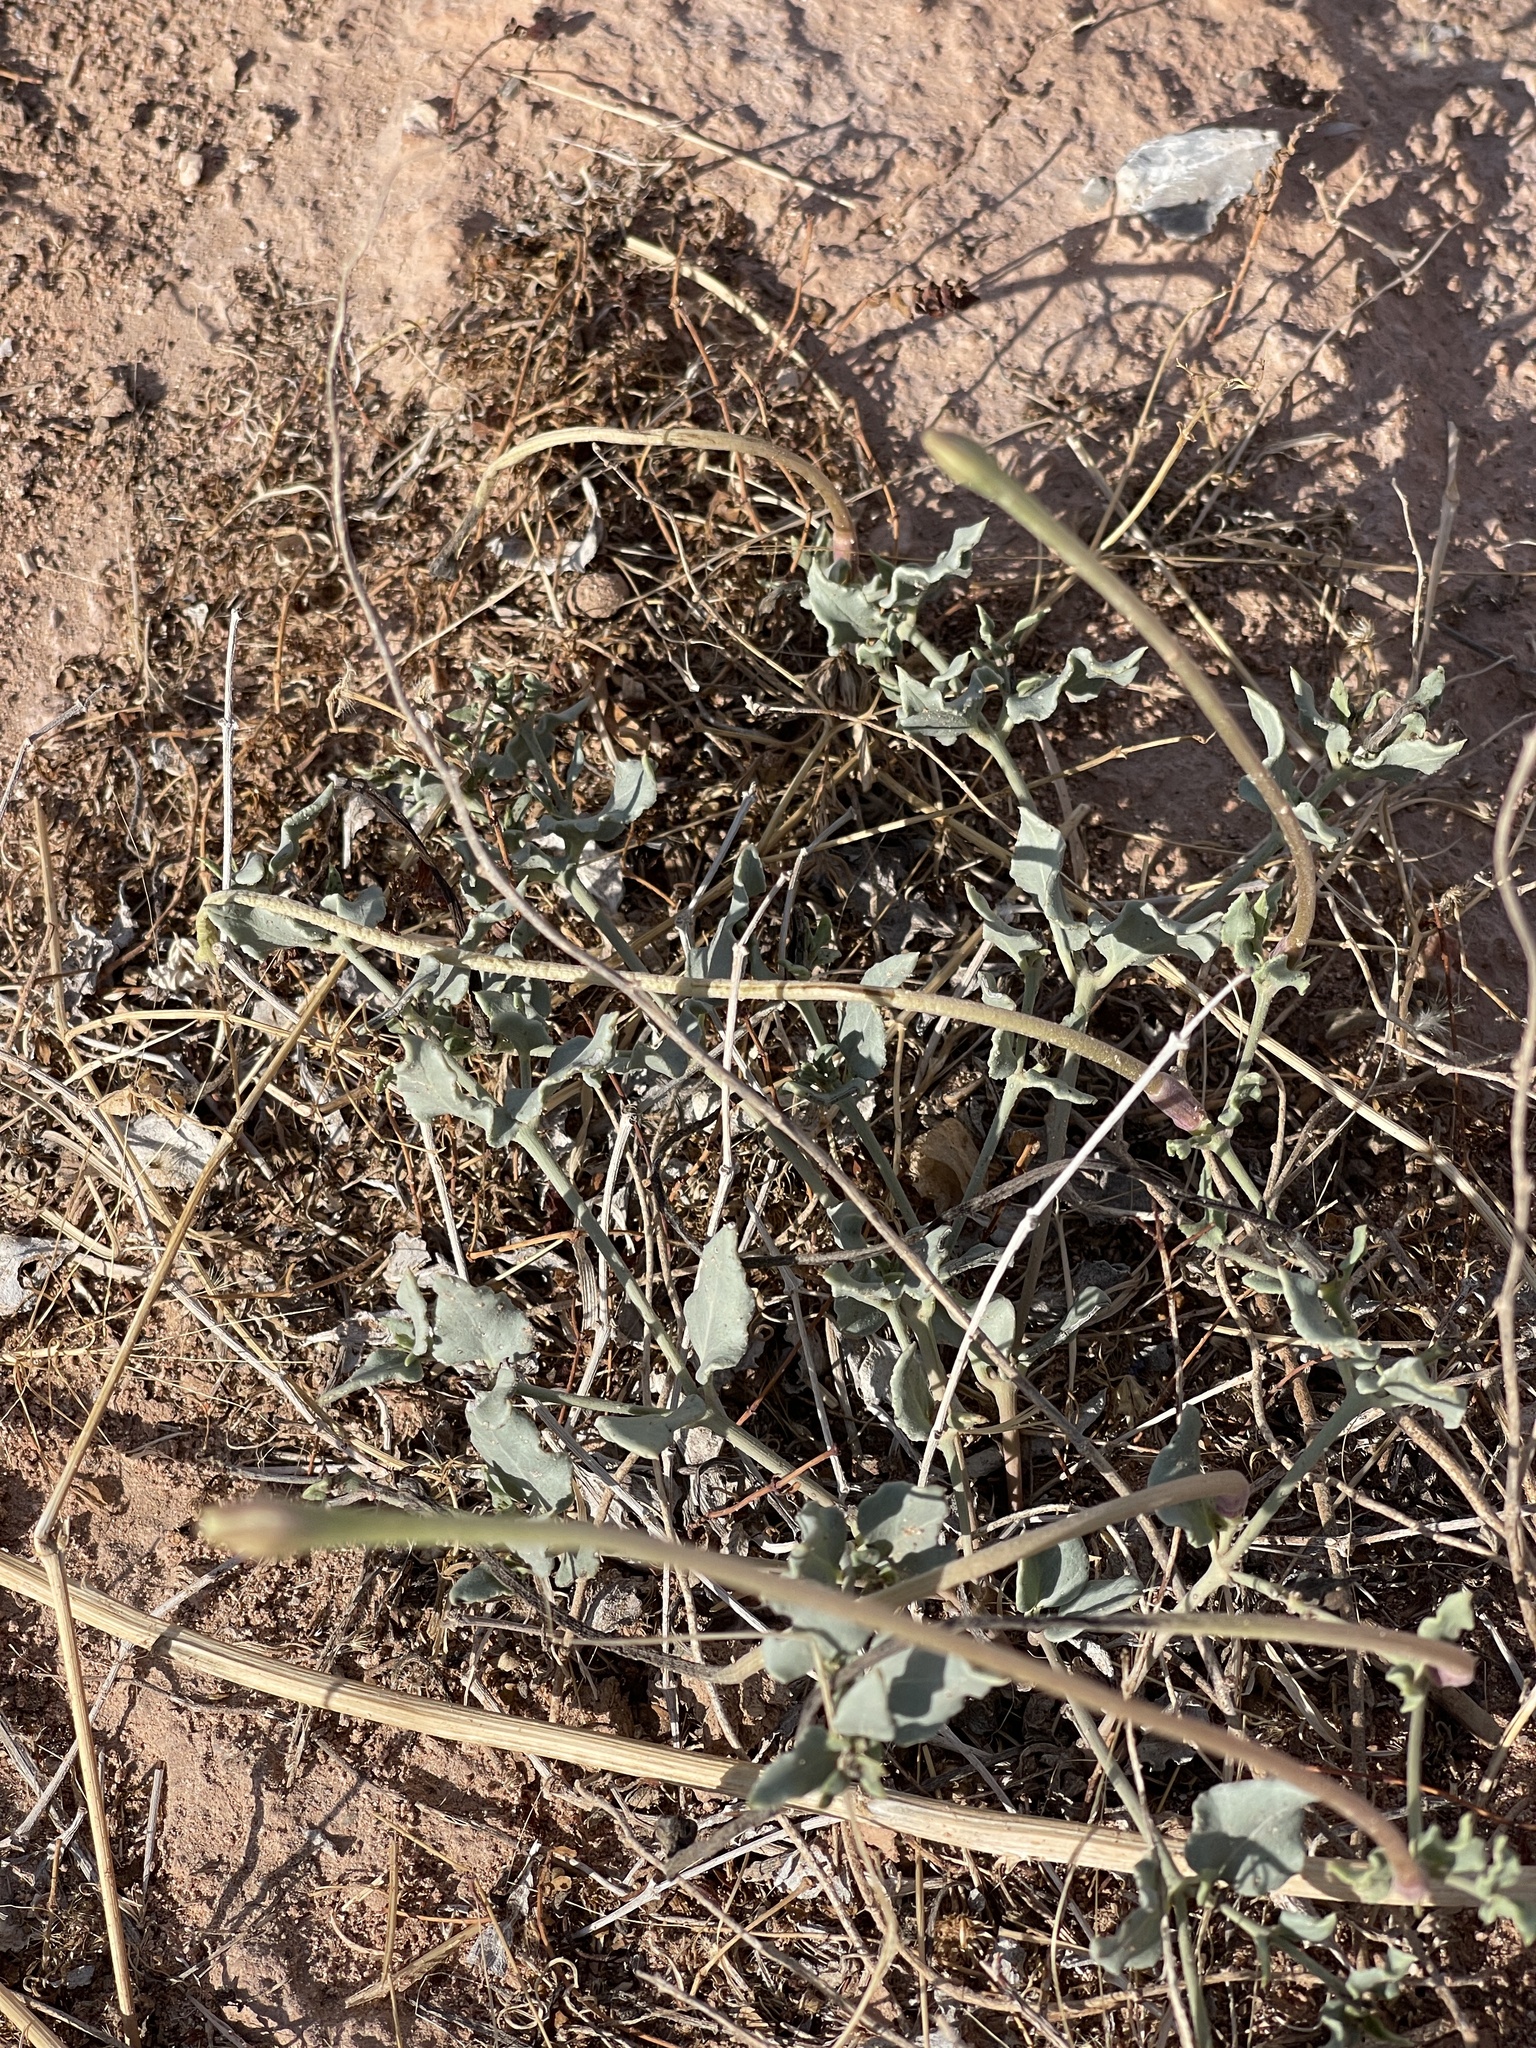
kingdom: Plantae
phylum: Tracheophyta
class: Magnoliopsida
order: Caryophyllales
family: Nyctaginaceae
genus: Acleisanthes
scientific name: Acleisanthes longiflora
